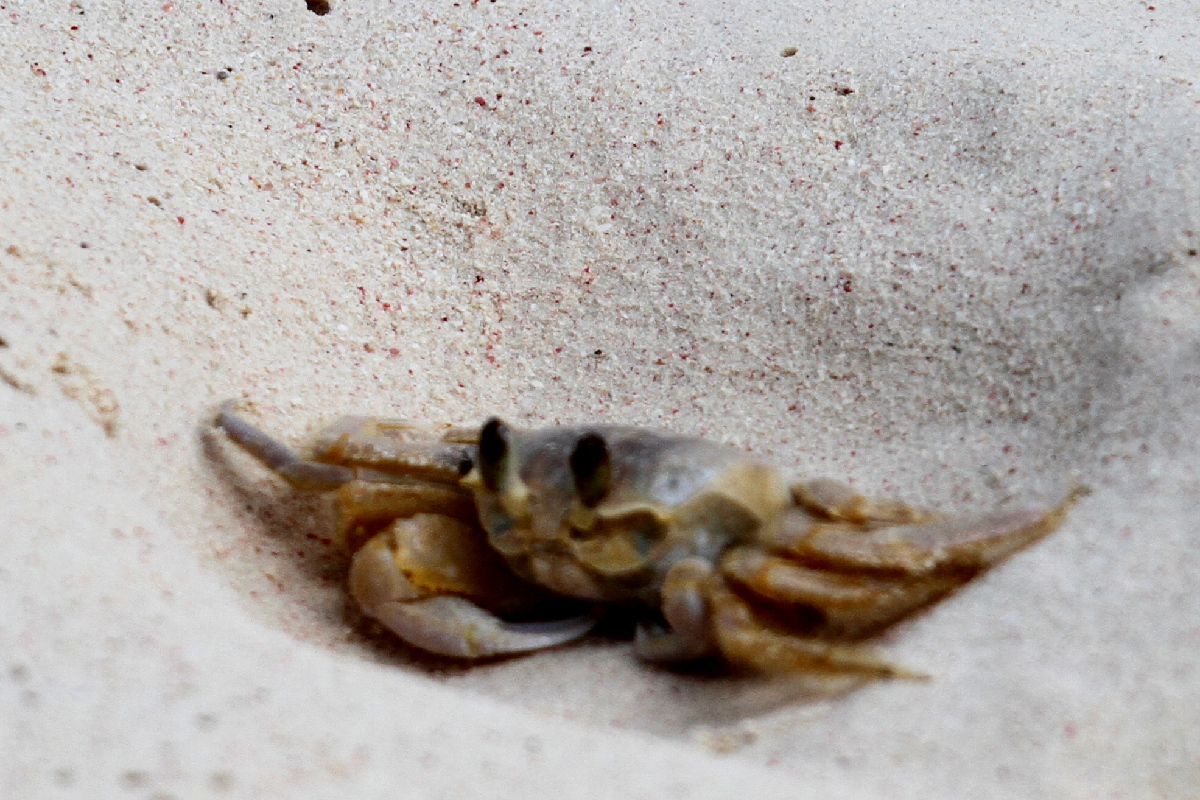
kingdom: Animalia
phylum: Arthropoda
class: Malacostraca
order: Decapoda
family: Ocypodidae
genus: Ocypode
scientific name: Ocypode quadrata
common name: Ghost crab
